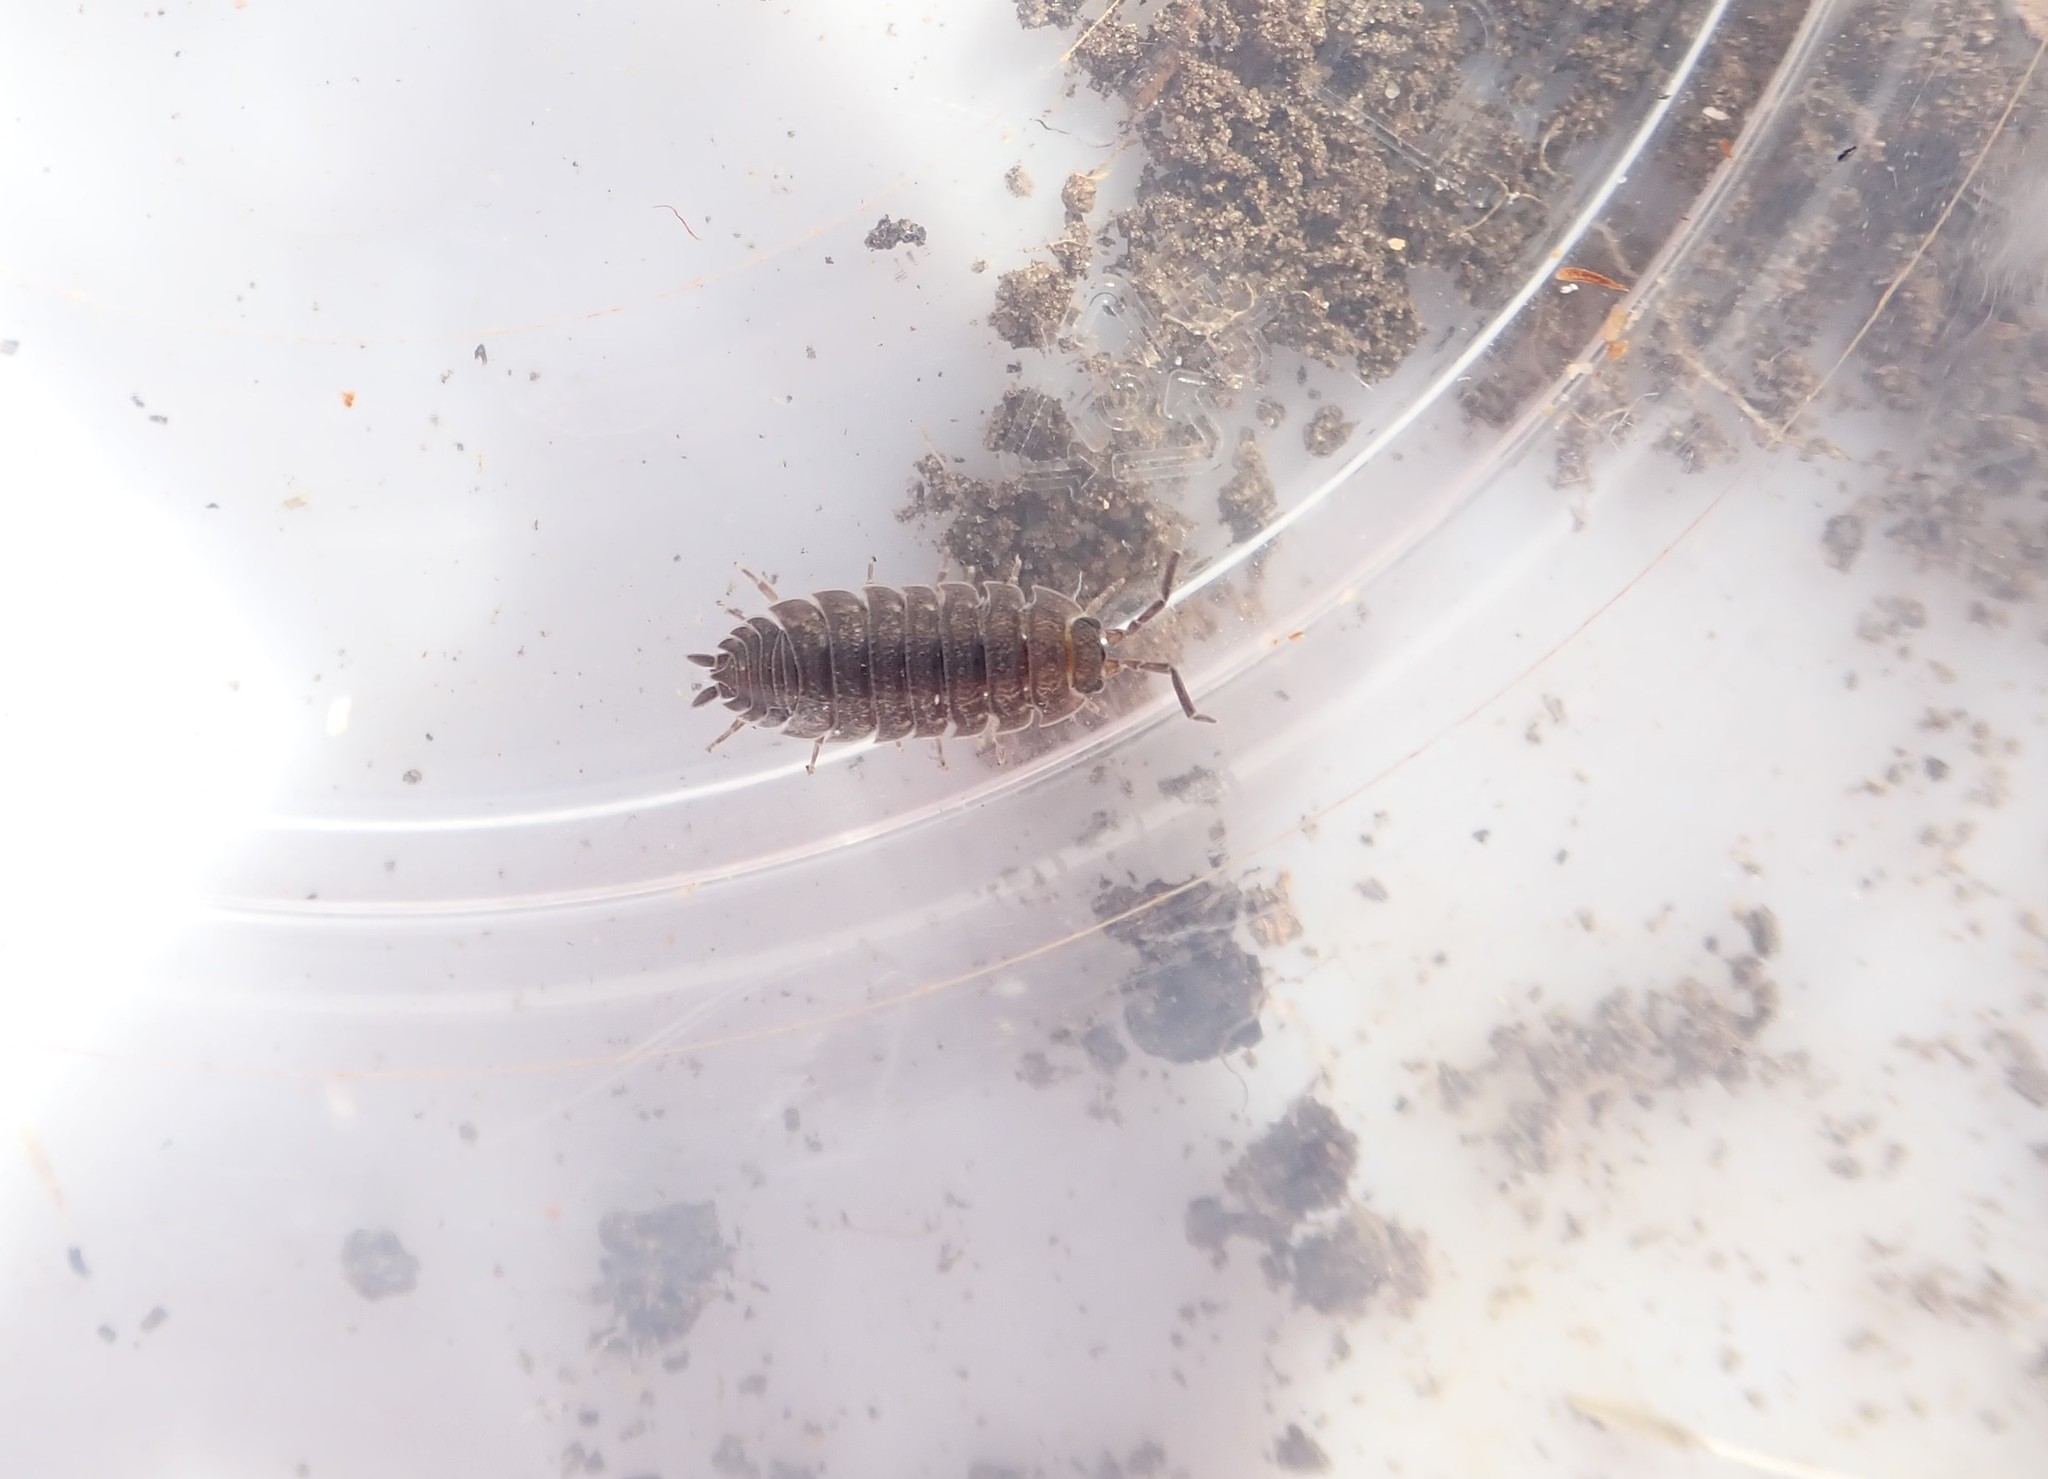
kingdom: Animalia
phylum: Arthropoda
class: Malacostraca
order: Isopoda
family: Porcellionidae
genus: Porcellio
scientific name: Porcellio scaber
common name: Common rough woodlouse
